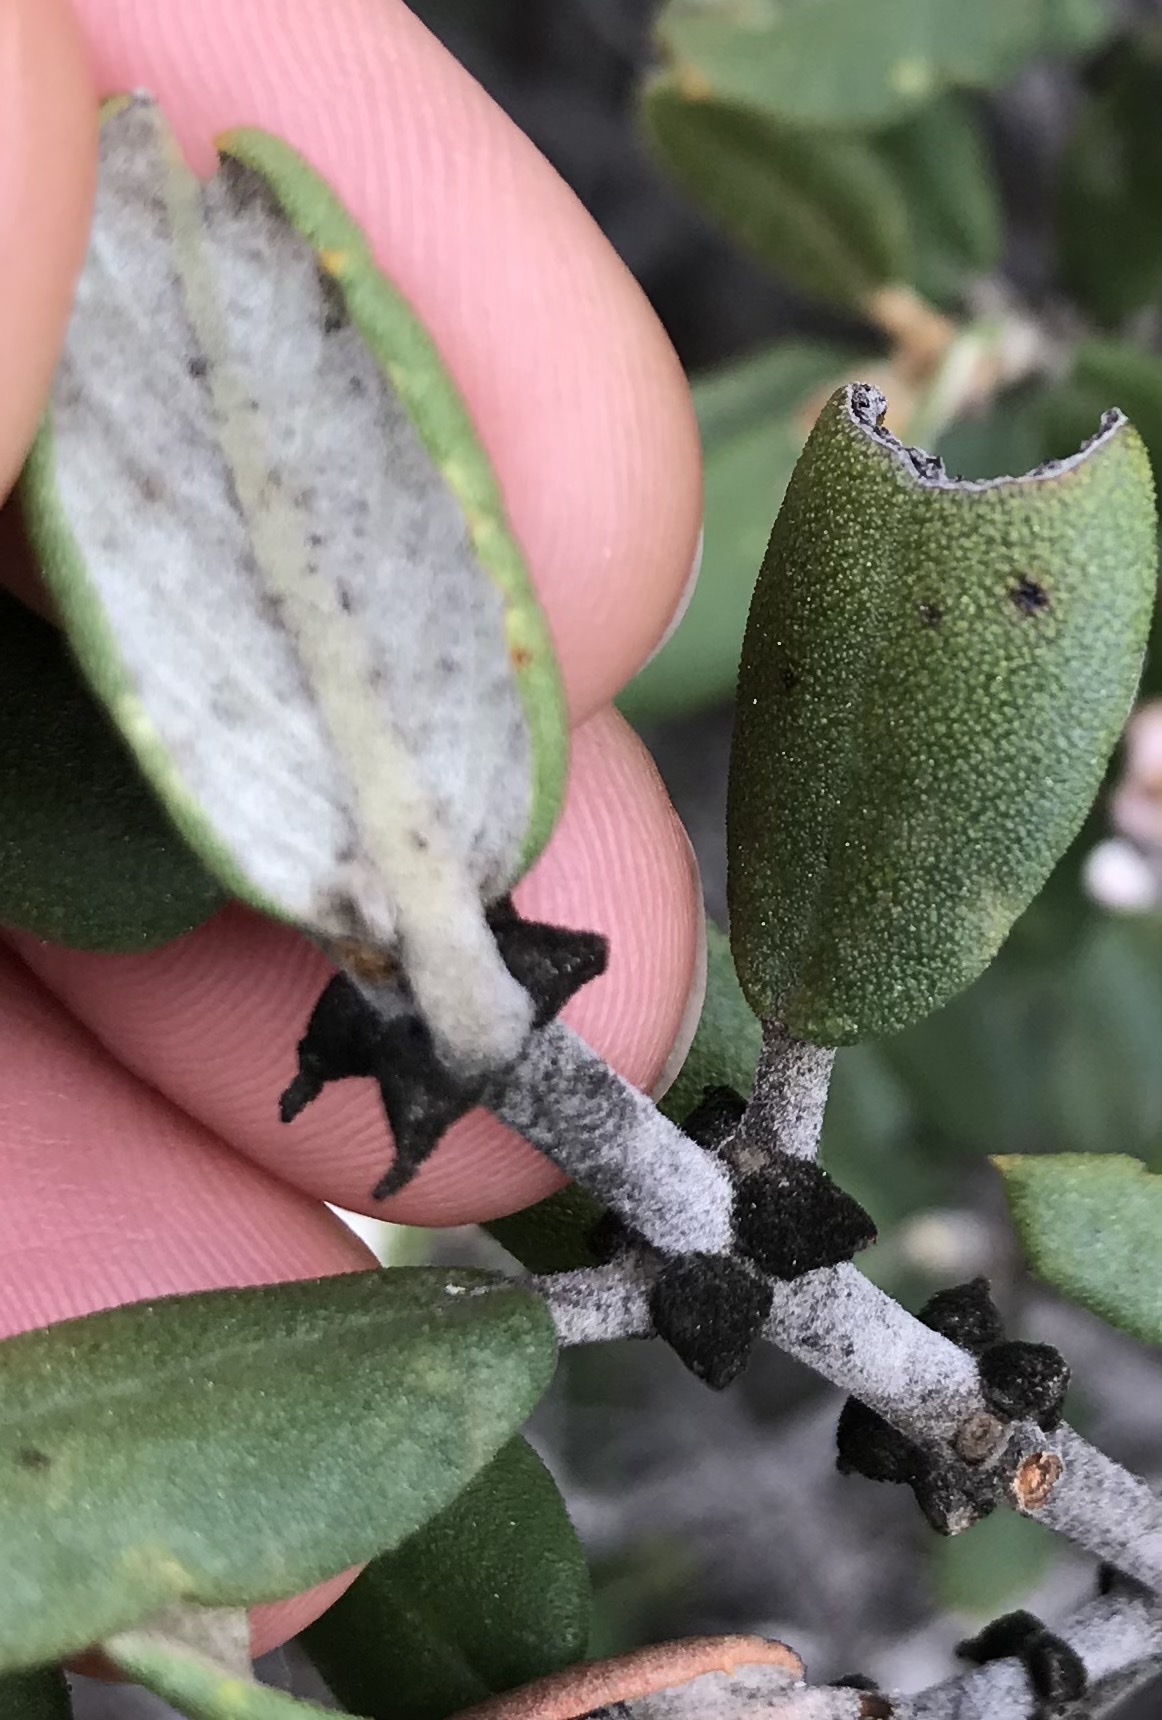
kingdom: Plantae
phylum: Tracheophyta
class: Magnoliopsida
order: Rosales
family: Rhamnaceae
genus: Ceanothus
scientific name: Ceanothus crassifolius
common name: Hoaryleaf ceanothus
